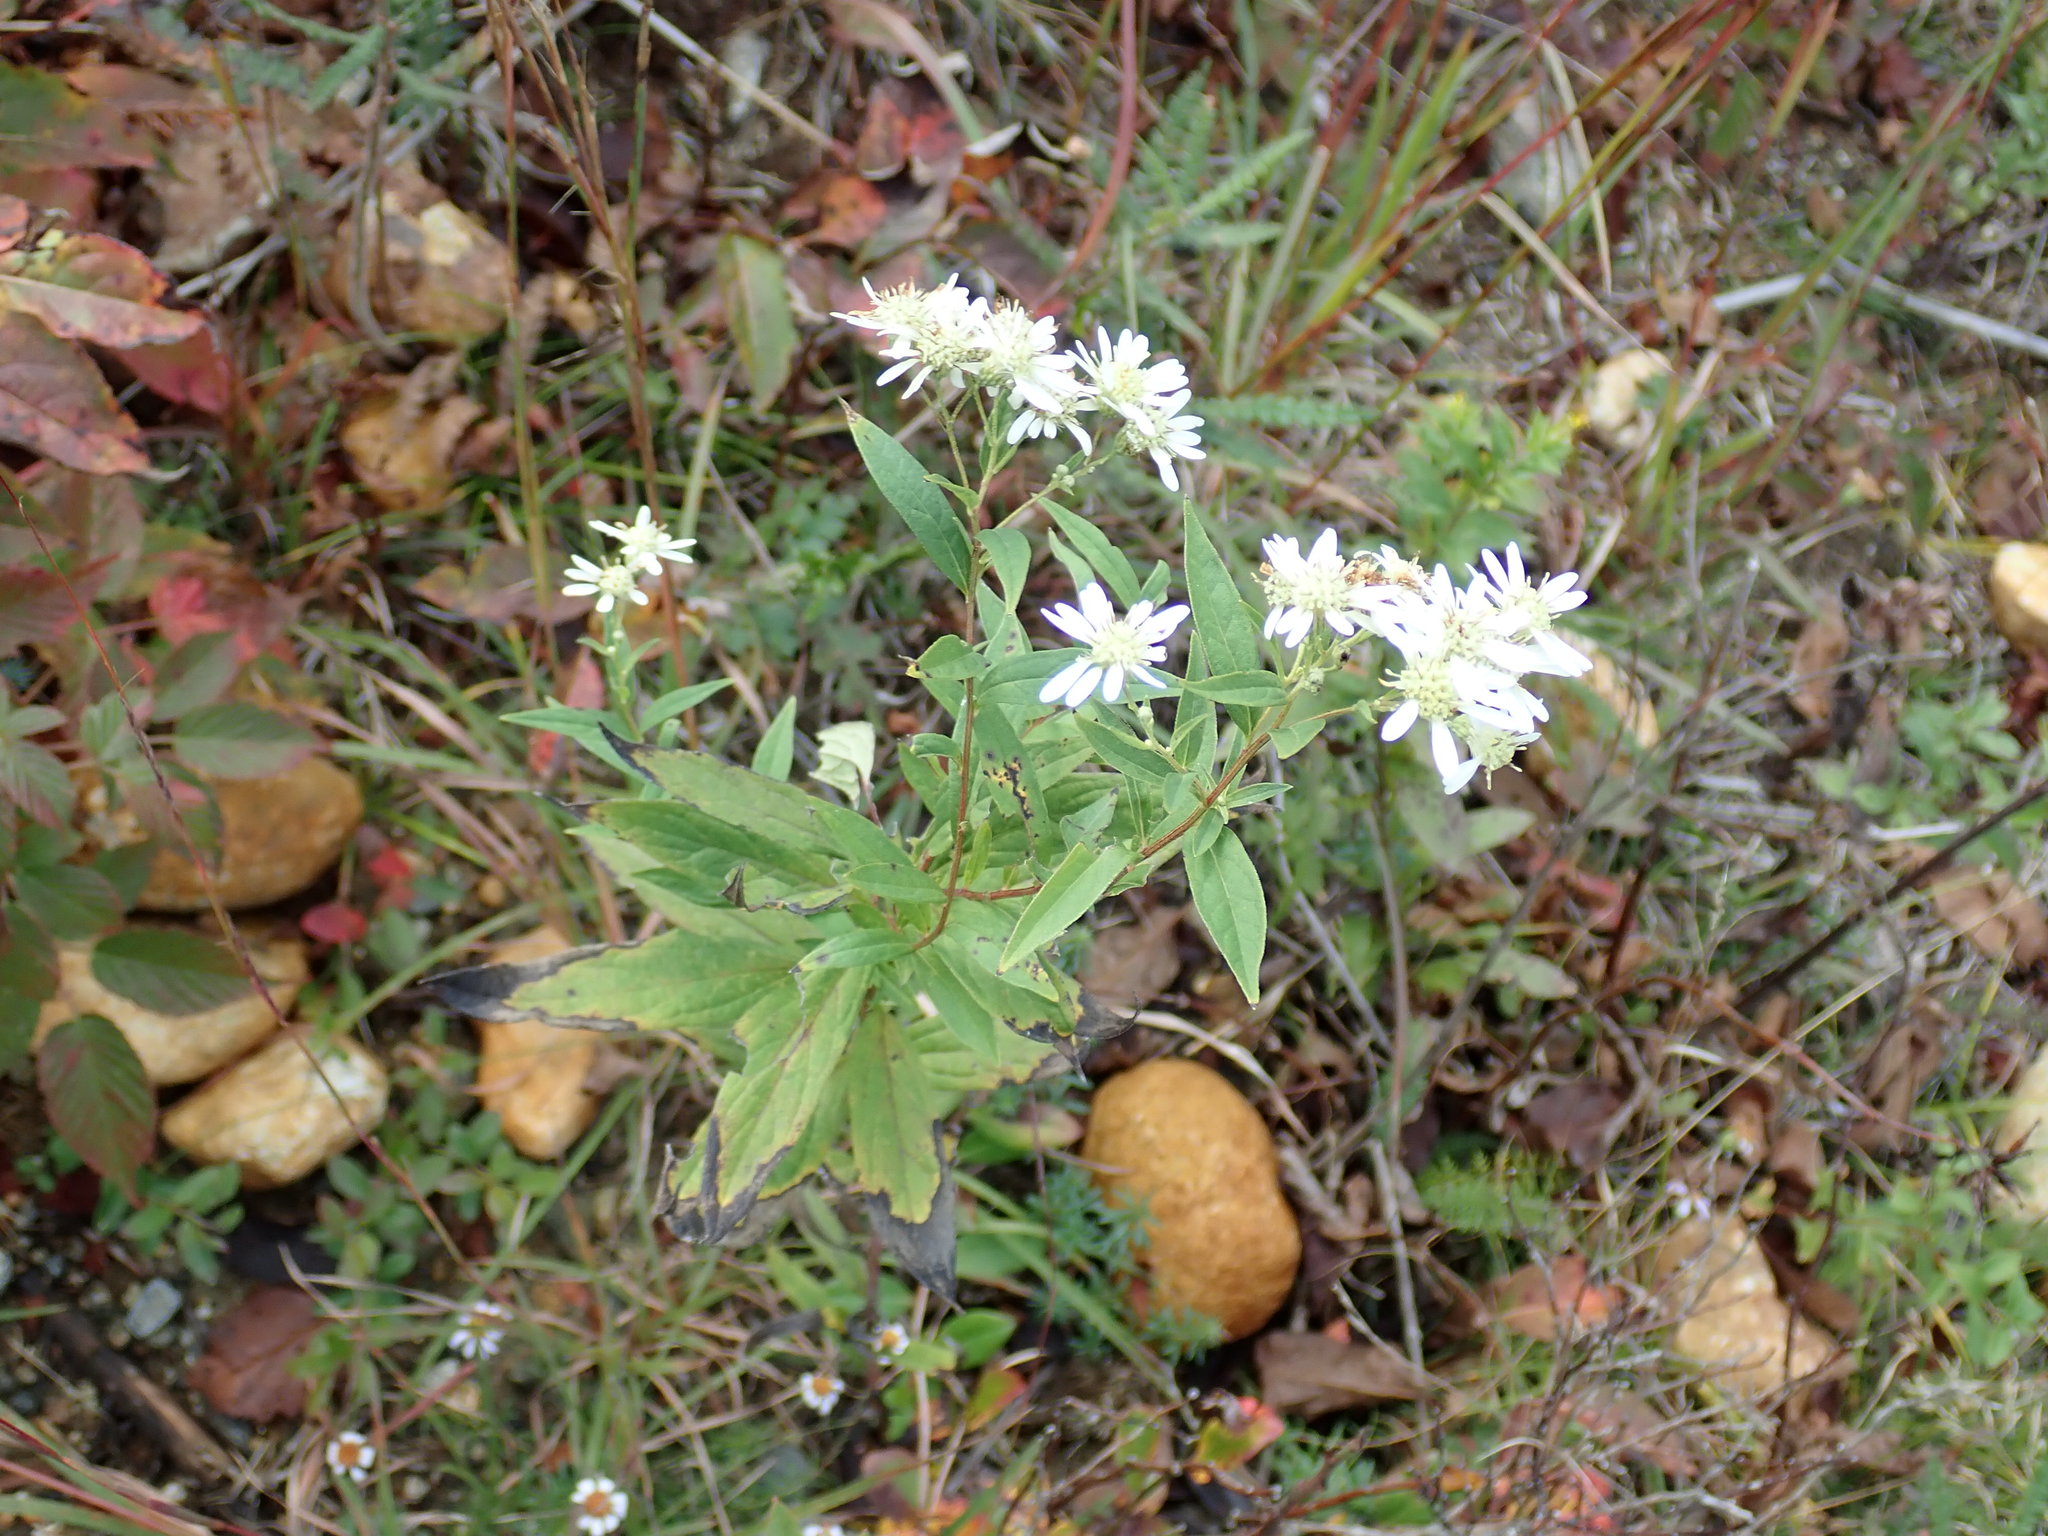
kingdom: Plantae
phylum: Tracheophyta
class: Magnoliopsida
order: Asterales
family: Asteraceae
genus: Doellingeria
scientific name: Doellingeria umbellata
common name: Flat-top white aster
